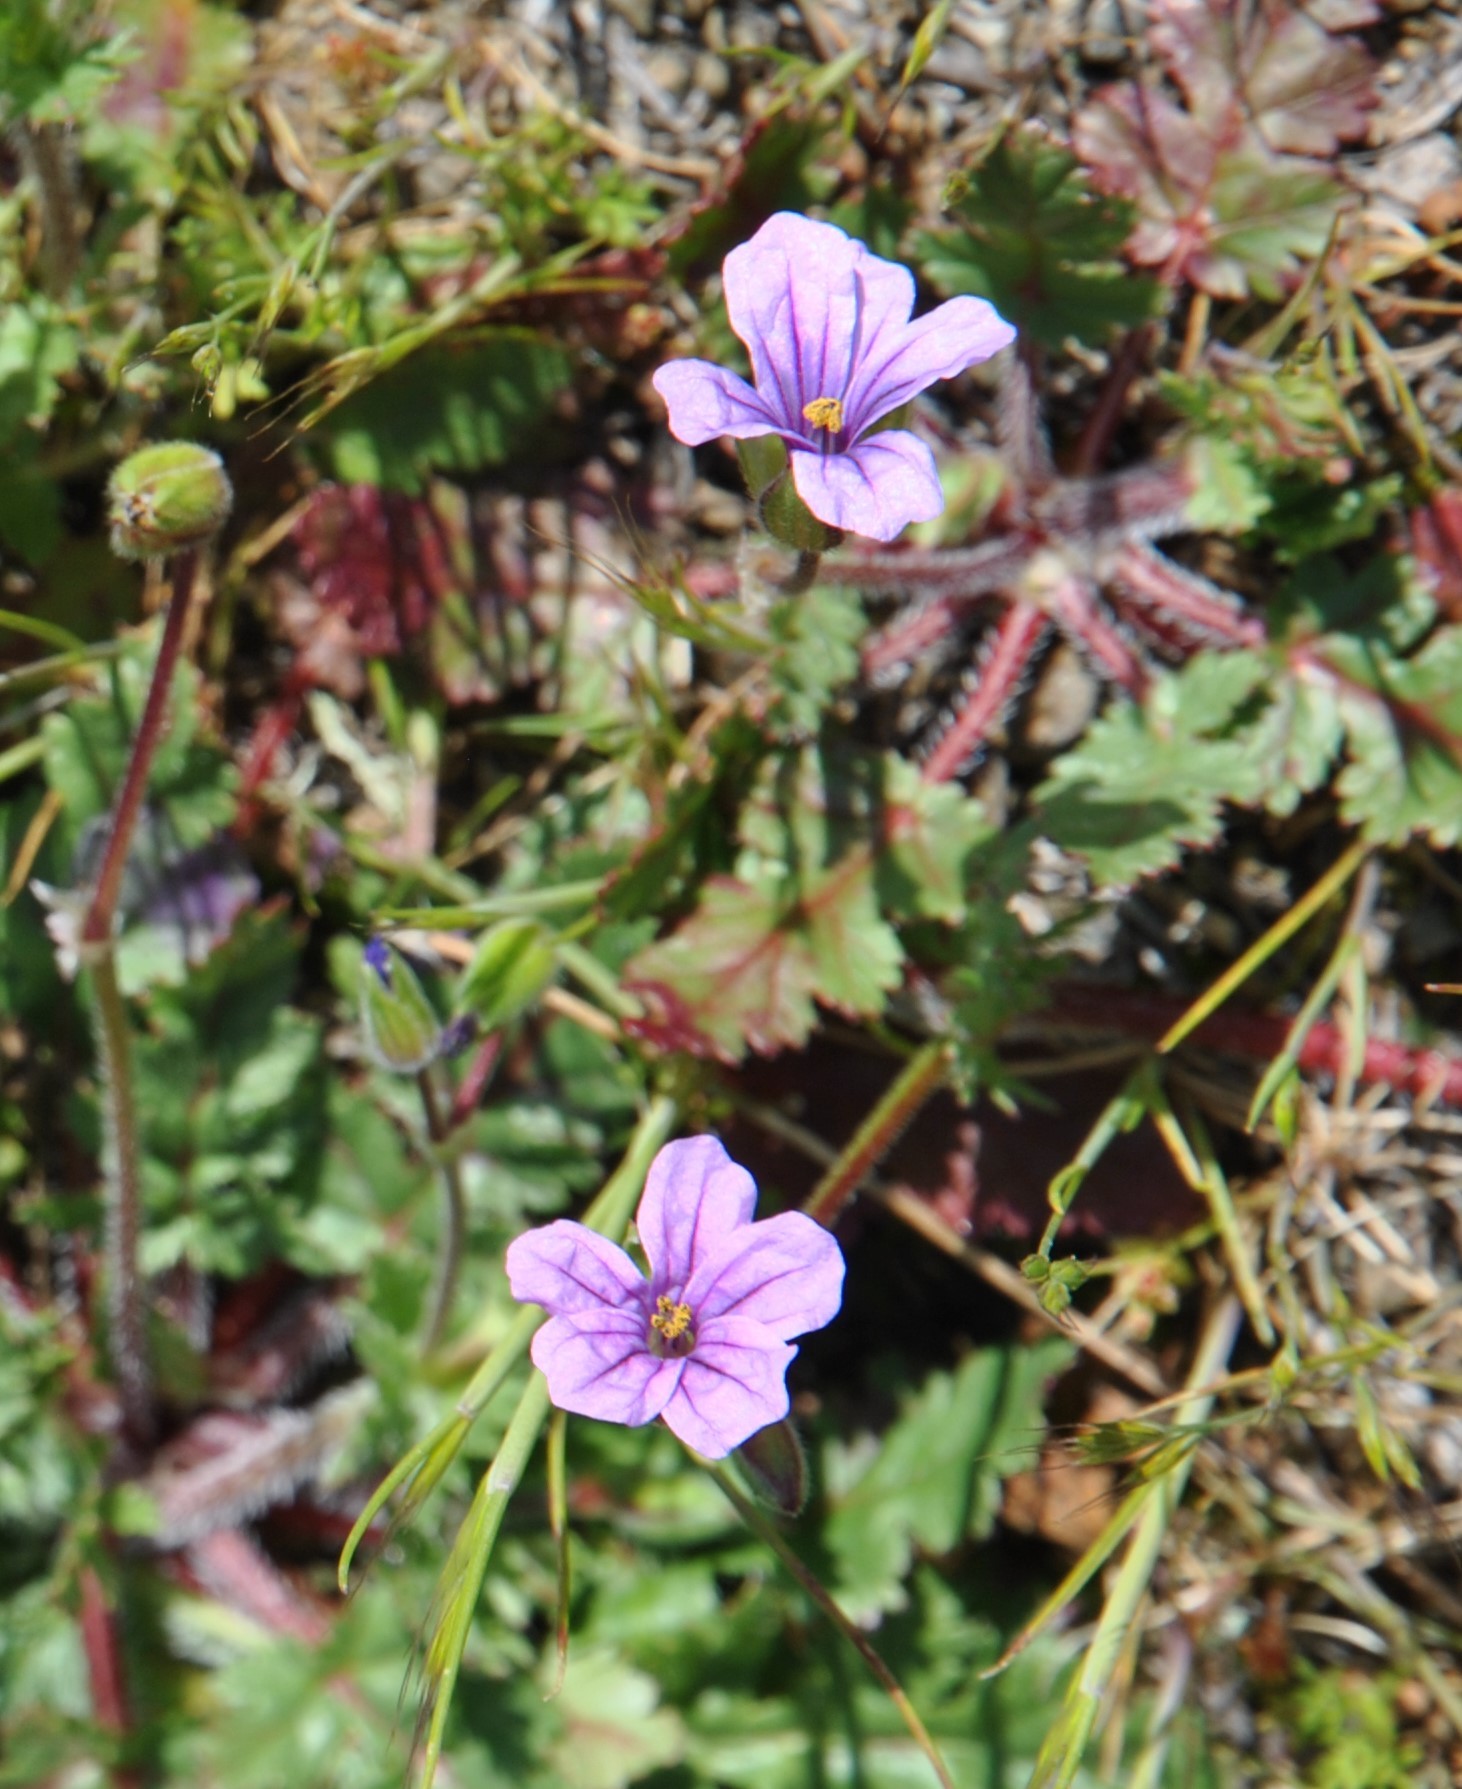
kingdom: Plantae
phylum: Tracheophyta
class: Magnoliopsida
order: Geraniales
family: Geraniaceae
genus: Erodium
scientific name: Erodium botrys
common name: Mediterranean stork's-bill
